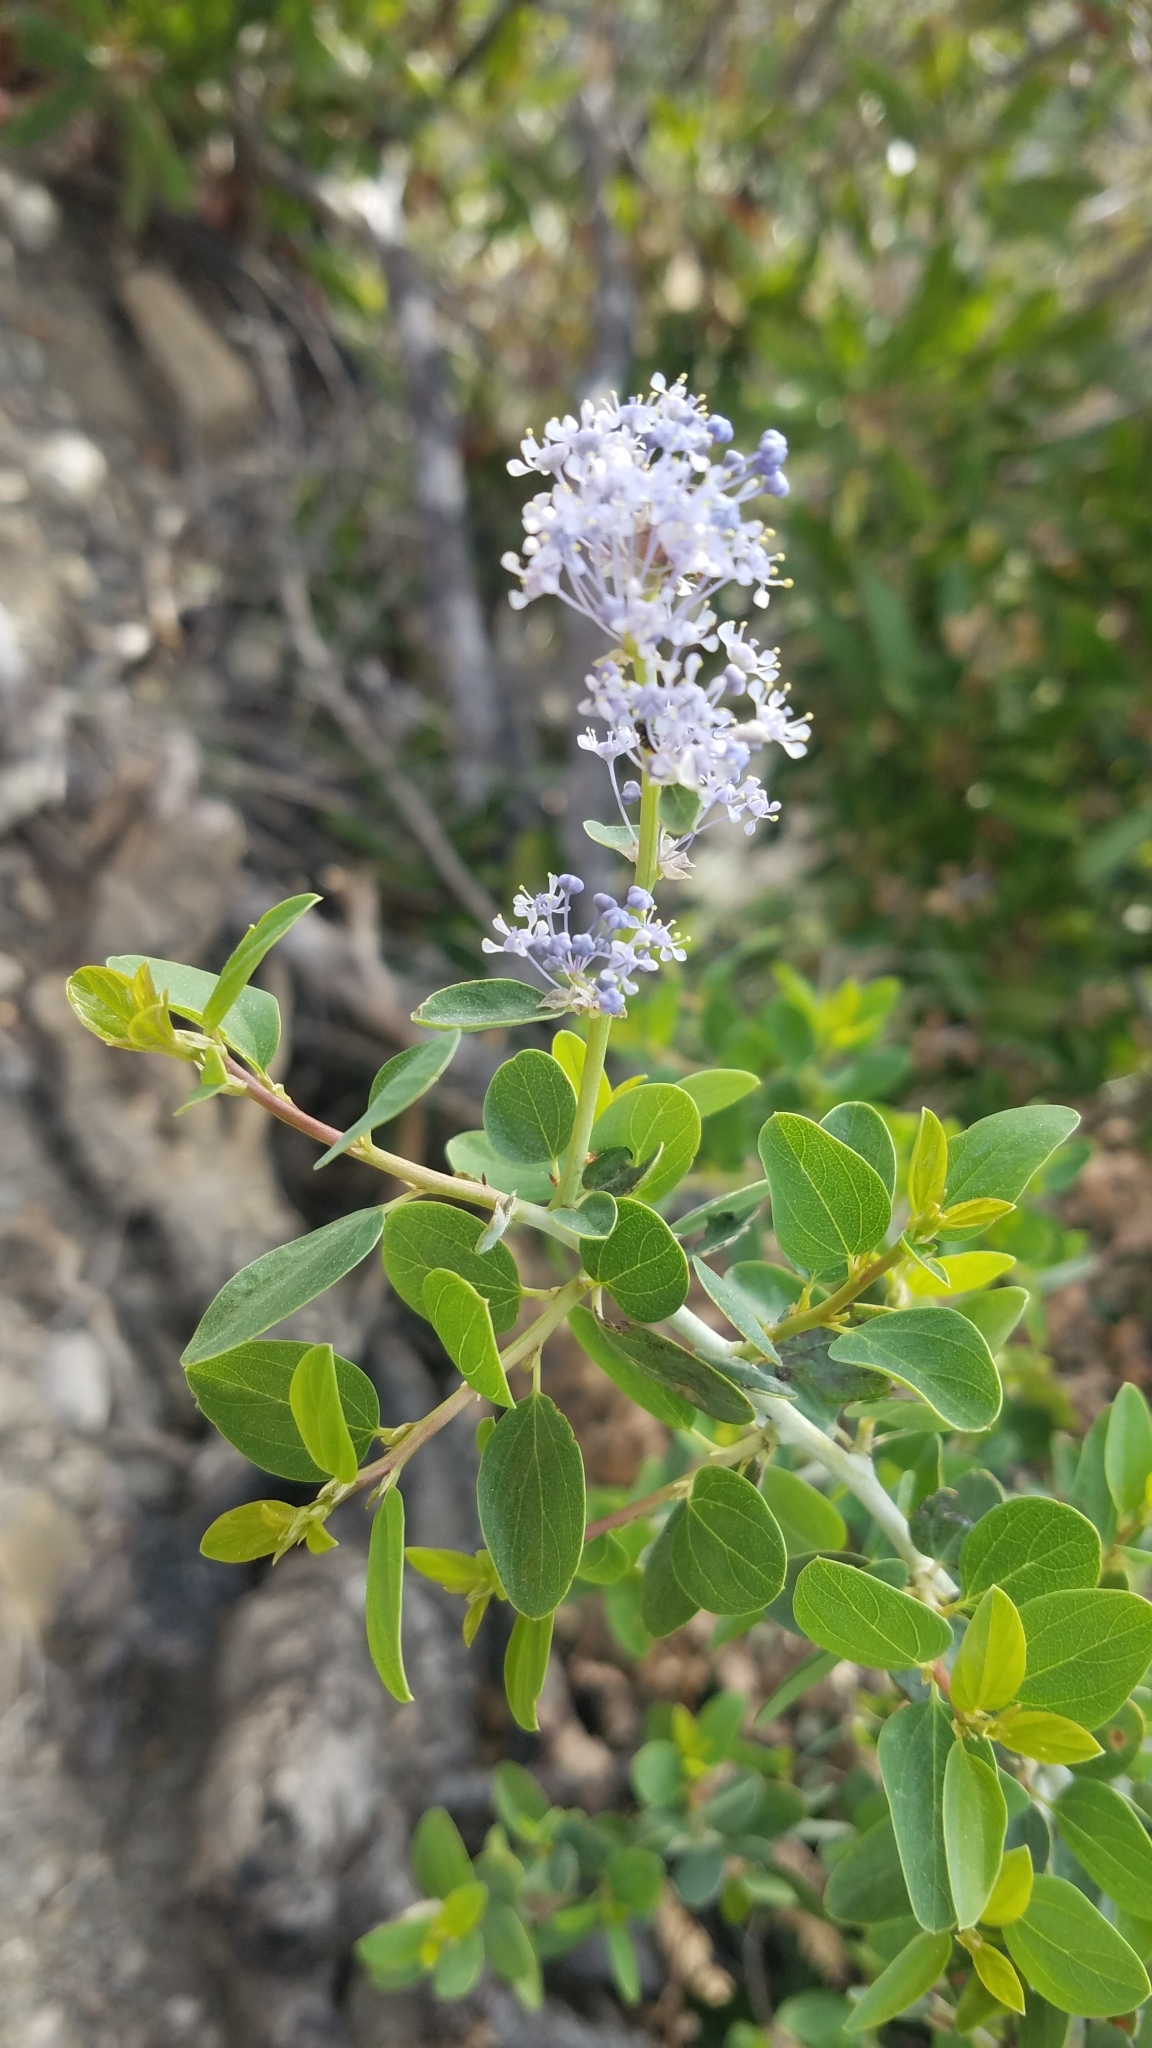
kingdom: Plantae
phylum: Tracheophyta
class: Magnoliopsida
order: Rosales
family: Rhamnaceae
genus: Ceanothus
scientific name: Ceanothus leucodermis
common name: Chaparral whitethorn
